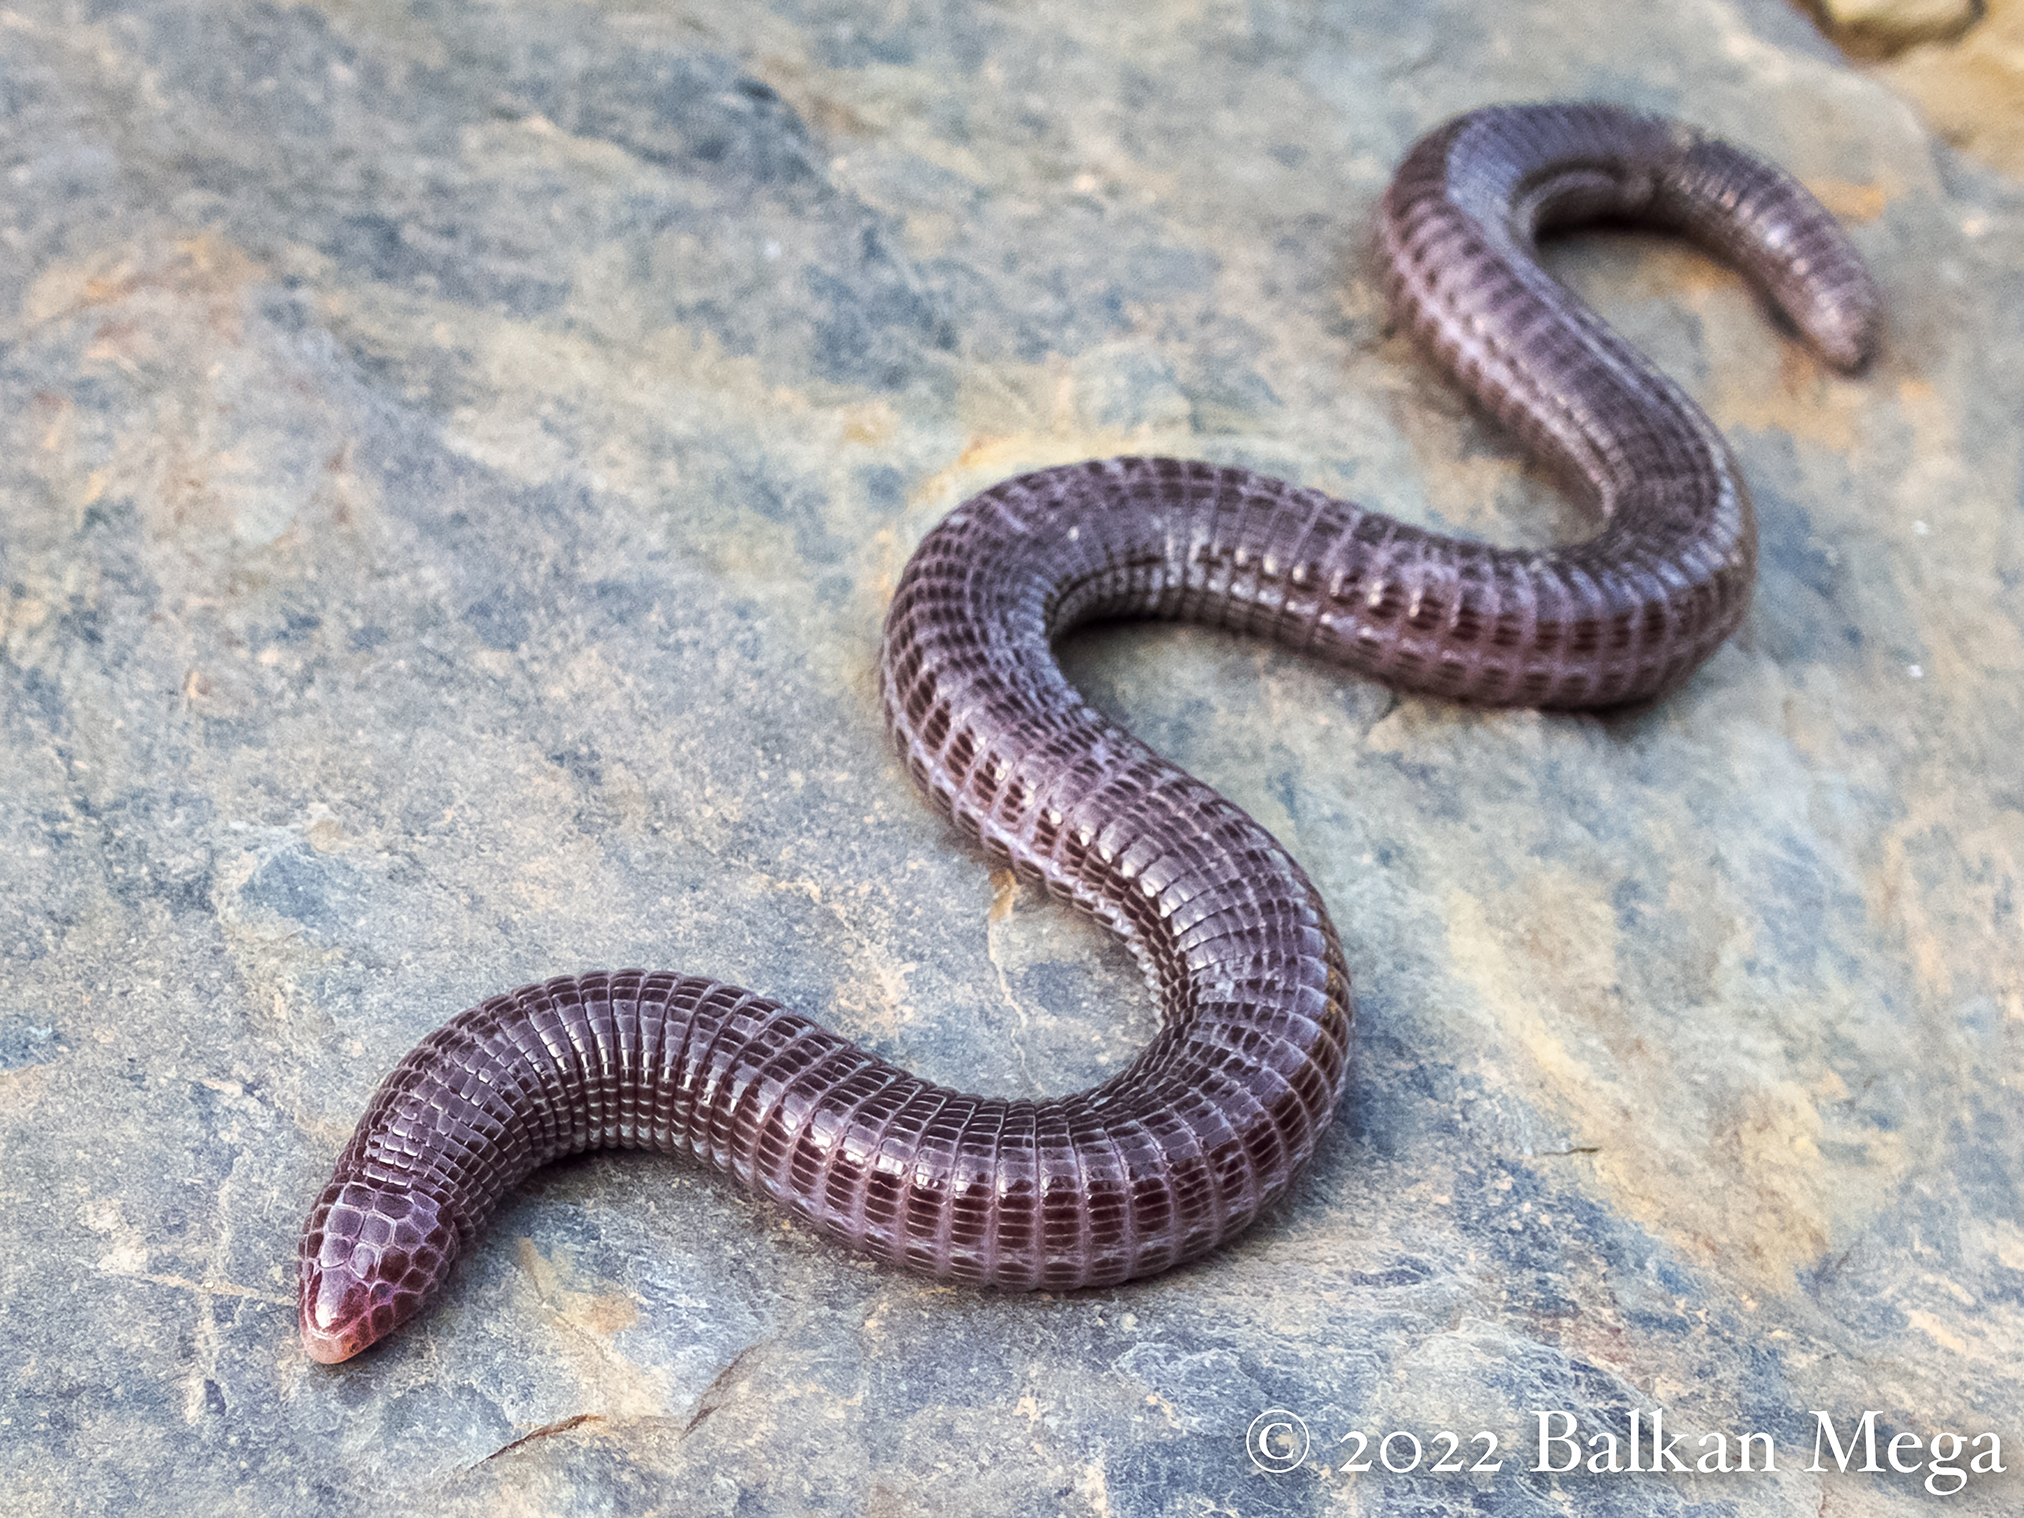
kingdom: Animalia
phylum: Chordata
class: Squamata
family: Blanidae
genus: Blanus
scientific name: Blanus strauchi
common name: Turkish worm lizard
